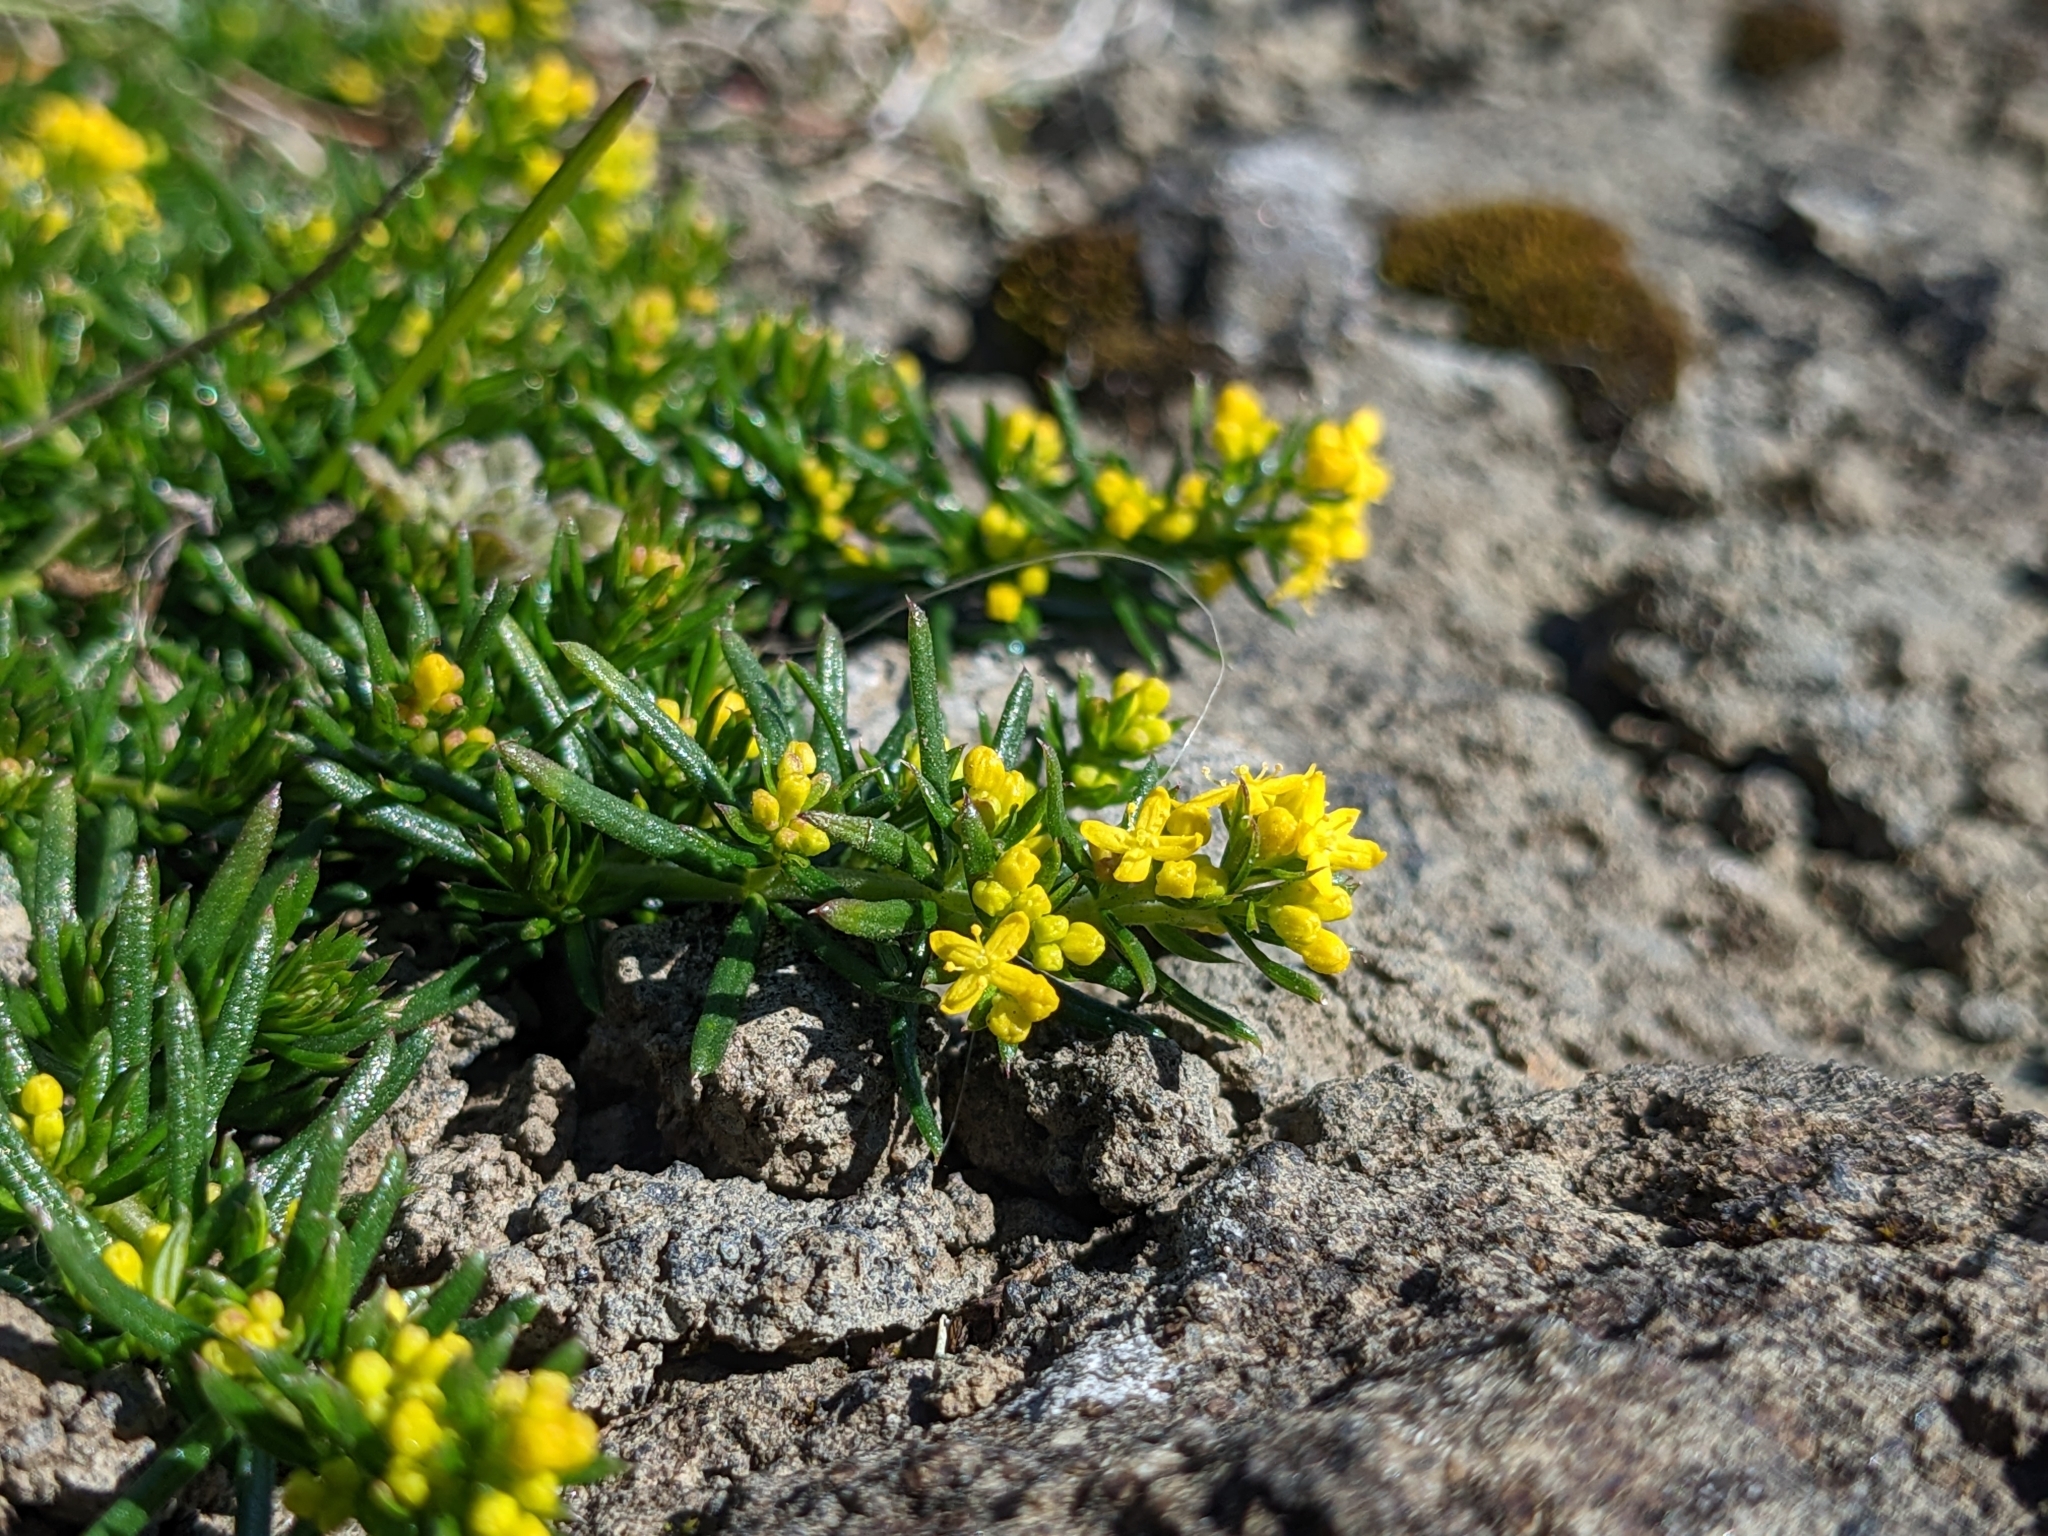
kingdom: Plantae
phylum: Tracheophyta
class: Magnoliopsida
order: Gentianales
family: Rubiaceae
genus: Galium
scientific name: Galium verum
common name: Lady's bedstraw
